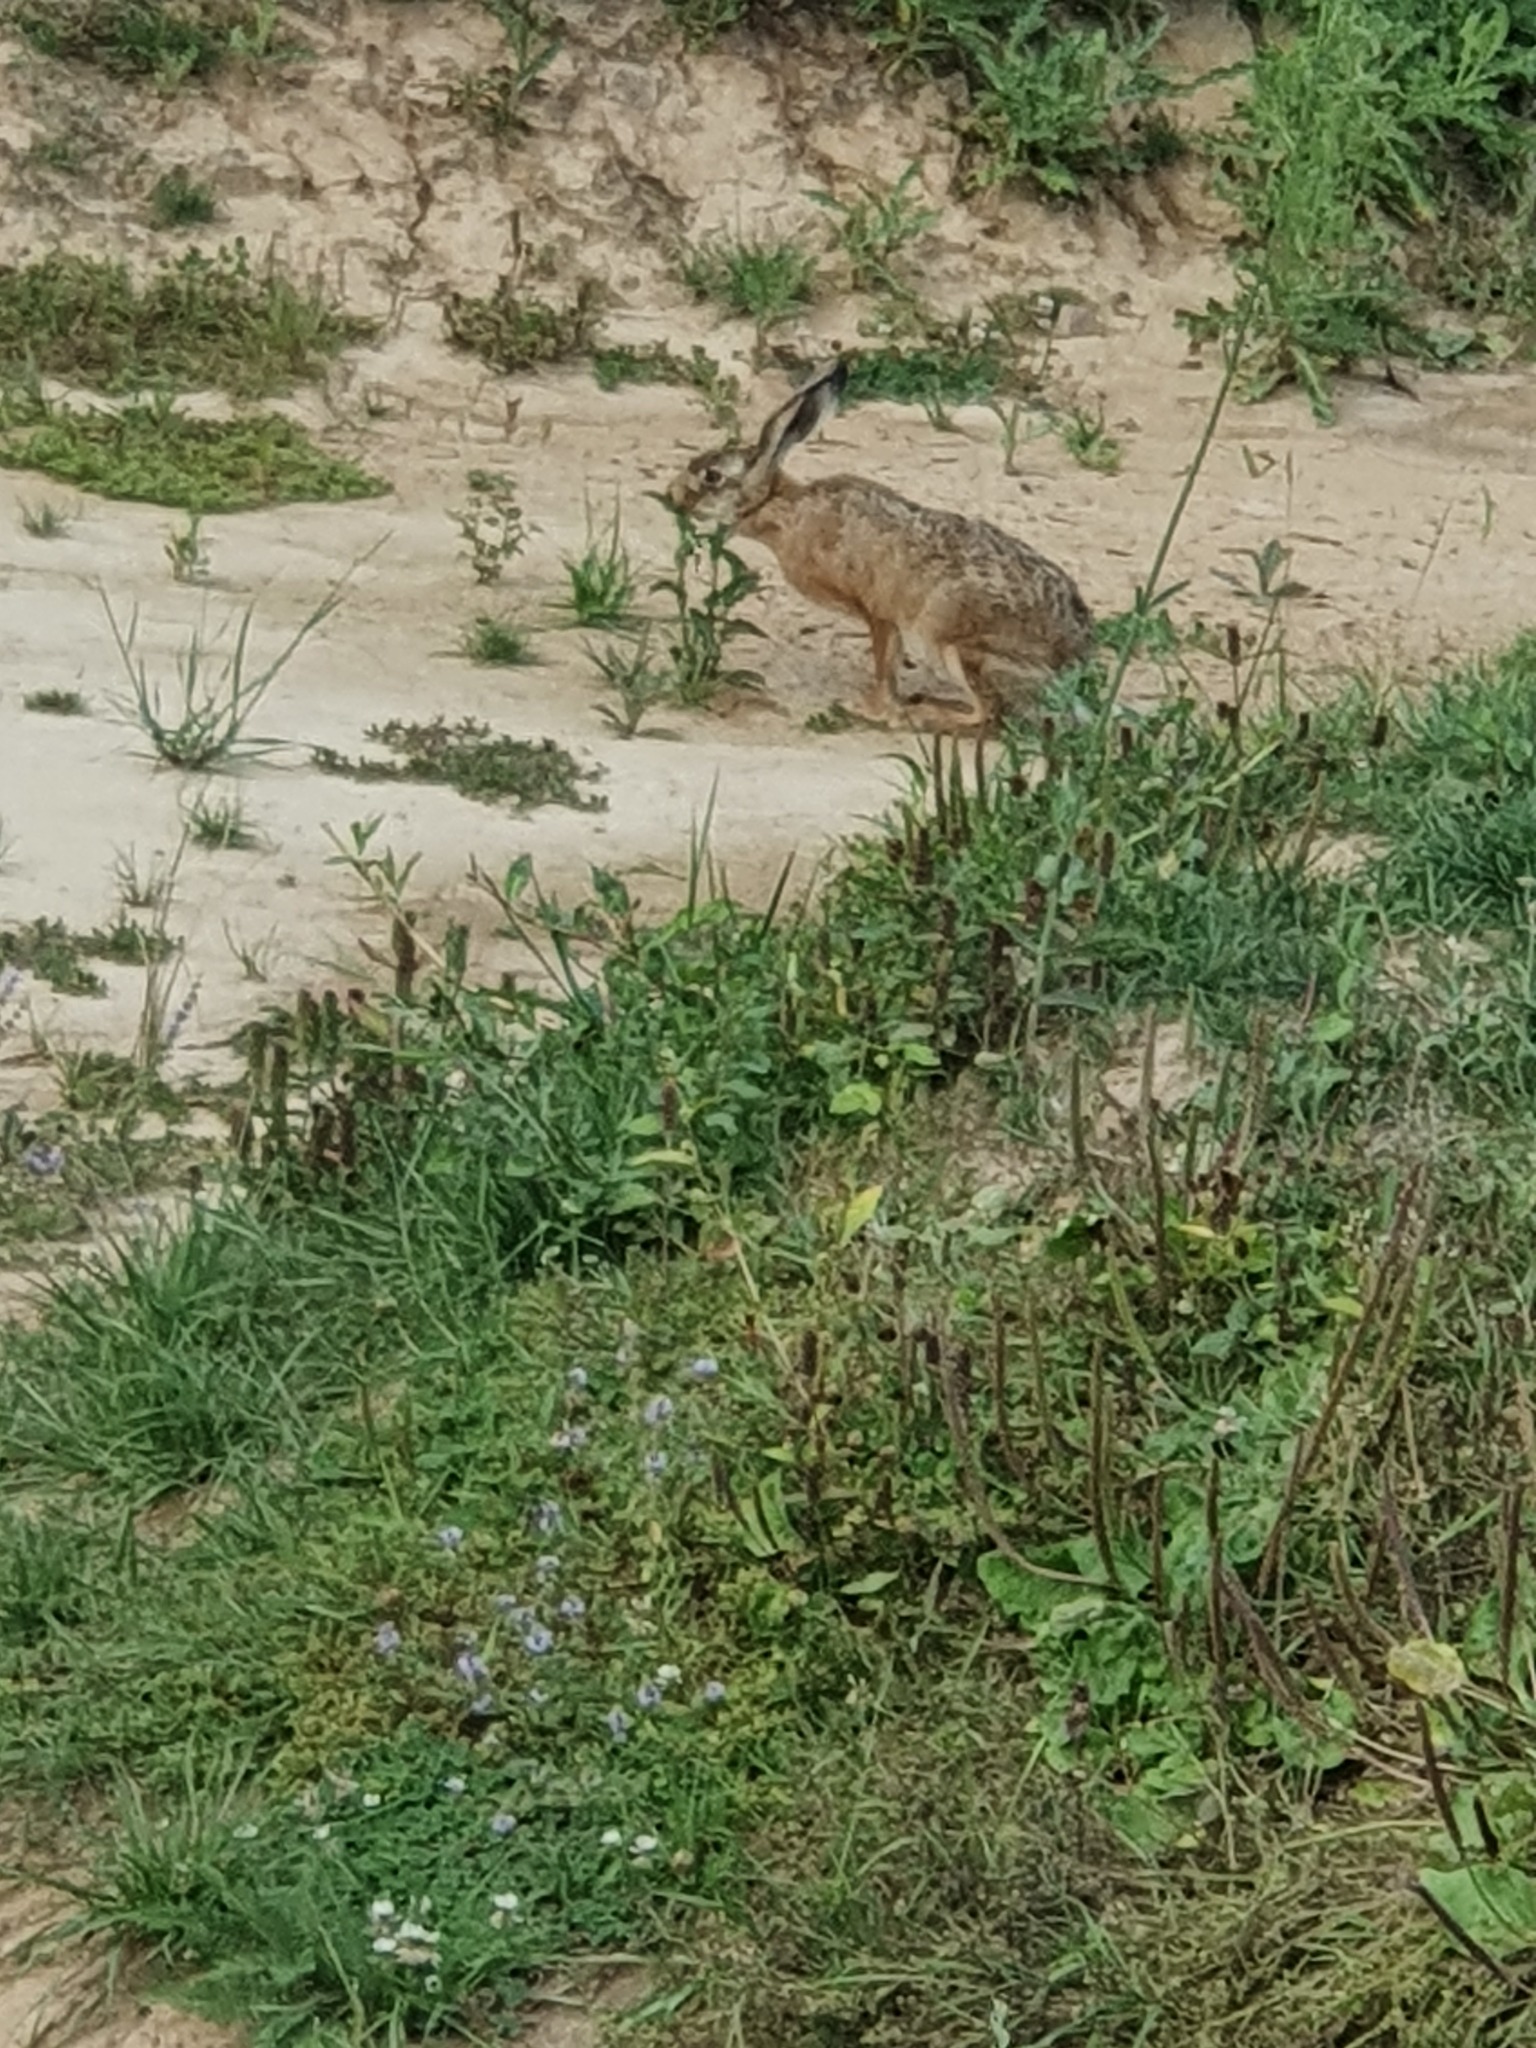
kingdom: Animalia
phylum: Chordata
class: Mammalia
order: Lagomorpha
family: Leporidae
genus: Lepus
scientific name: Lepus europaeus
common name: European hare
